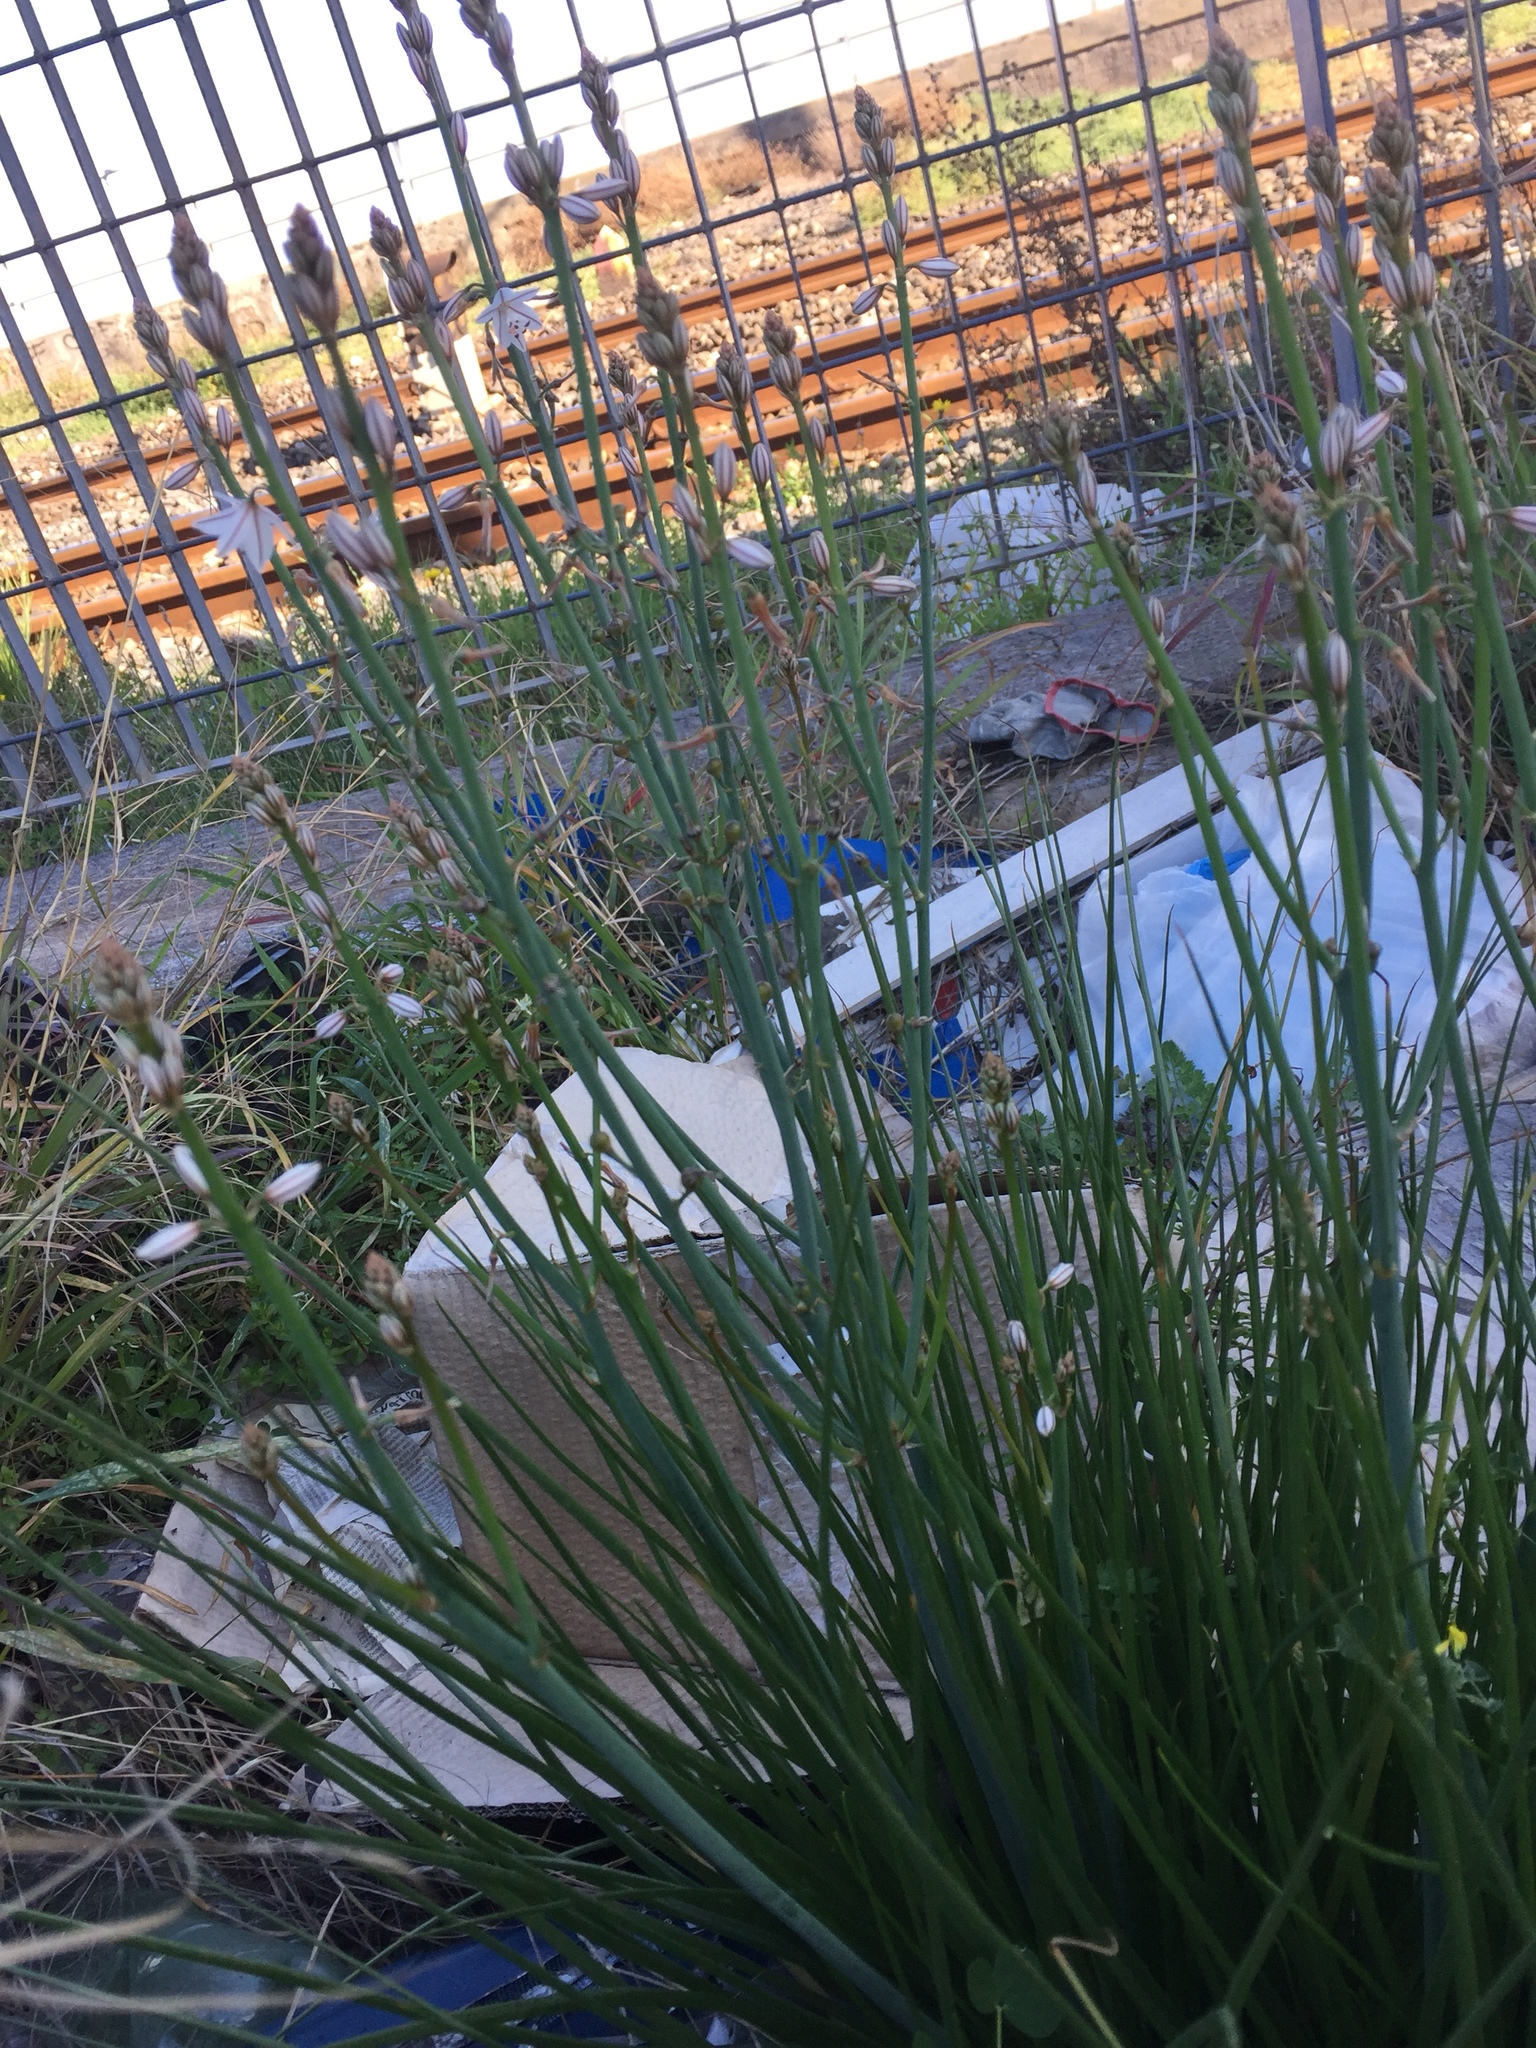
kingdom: Plantae
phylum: Tracheophyta
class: Liliopsida
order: Asparagales
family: Asphodelaceae
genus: Asphodelus
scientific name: Asphodelus fistulosus
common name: Onionweed
